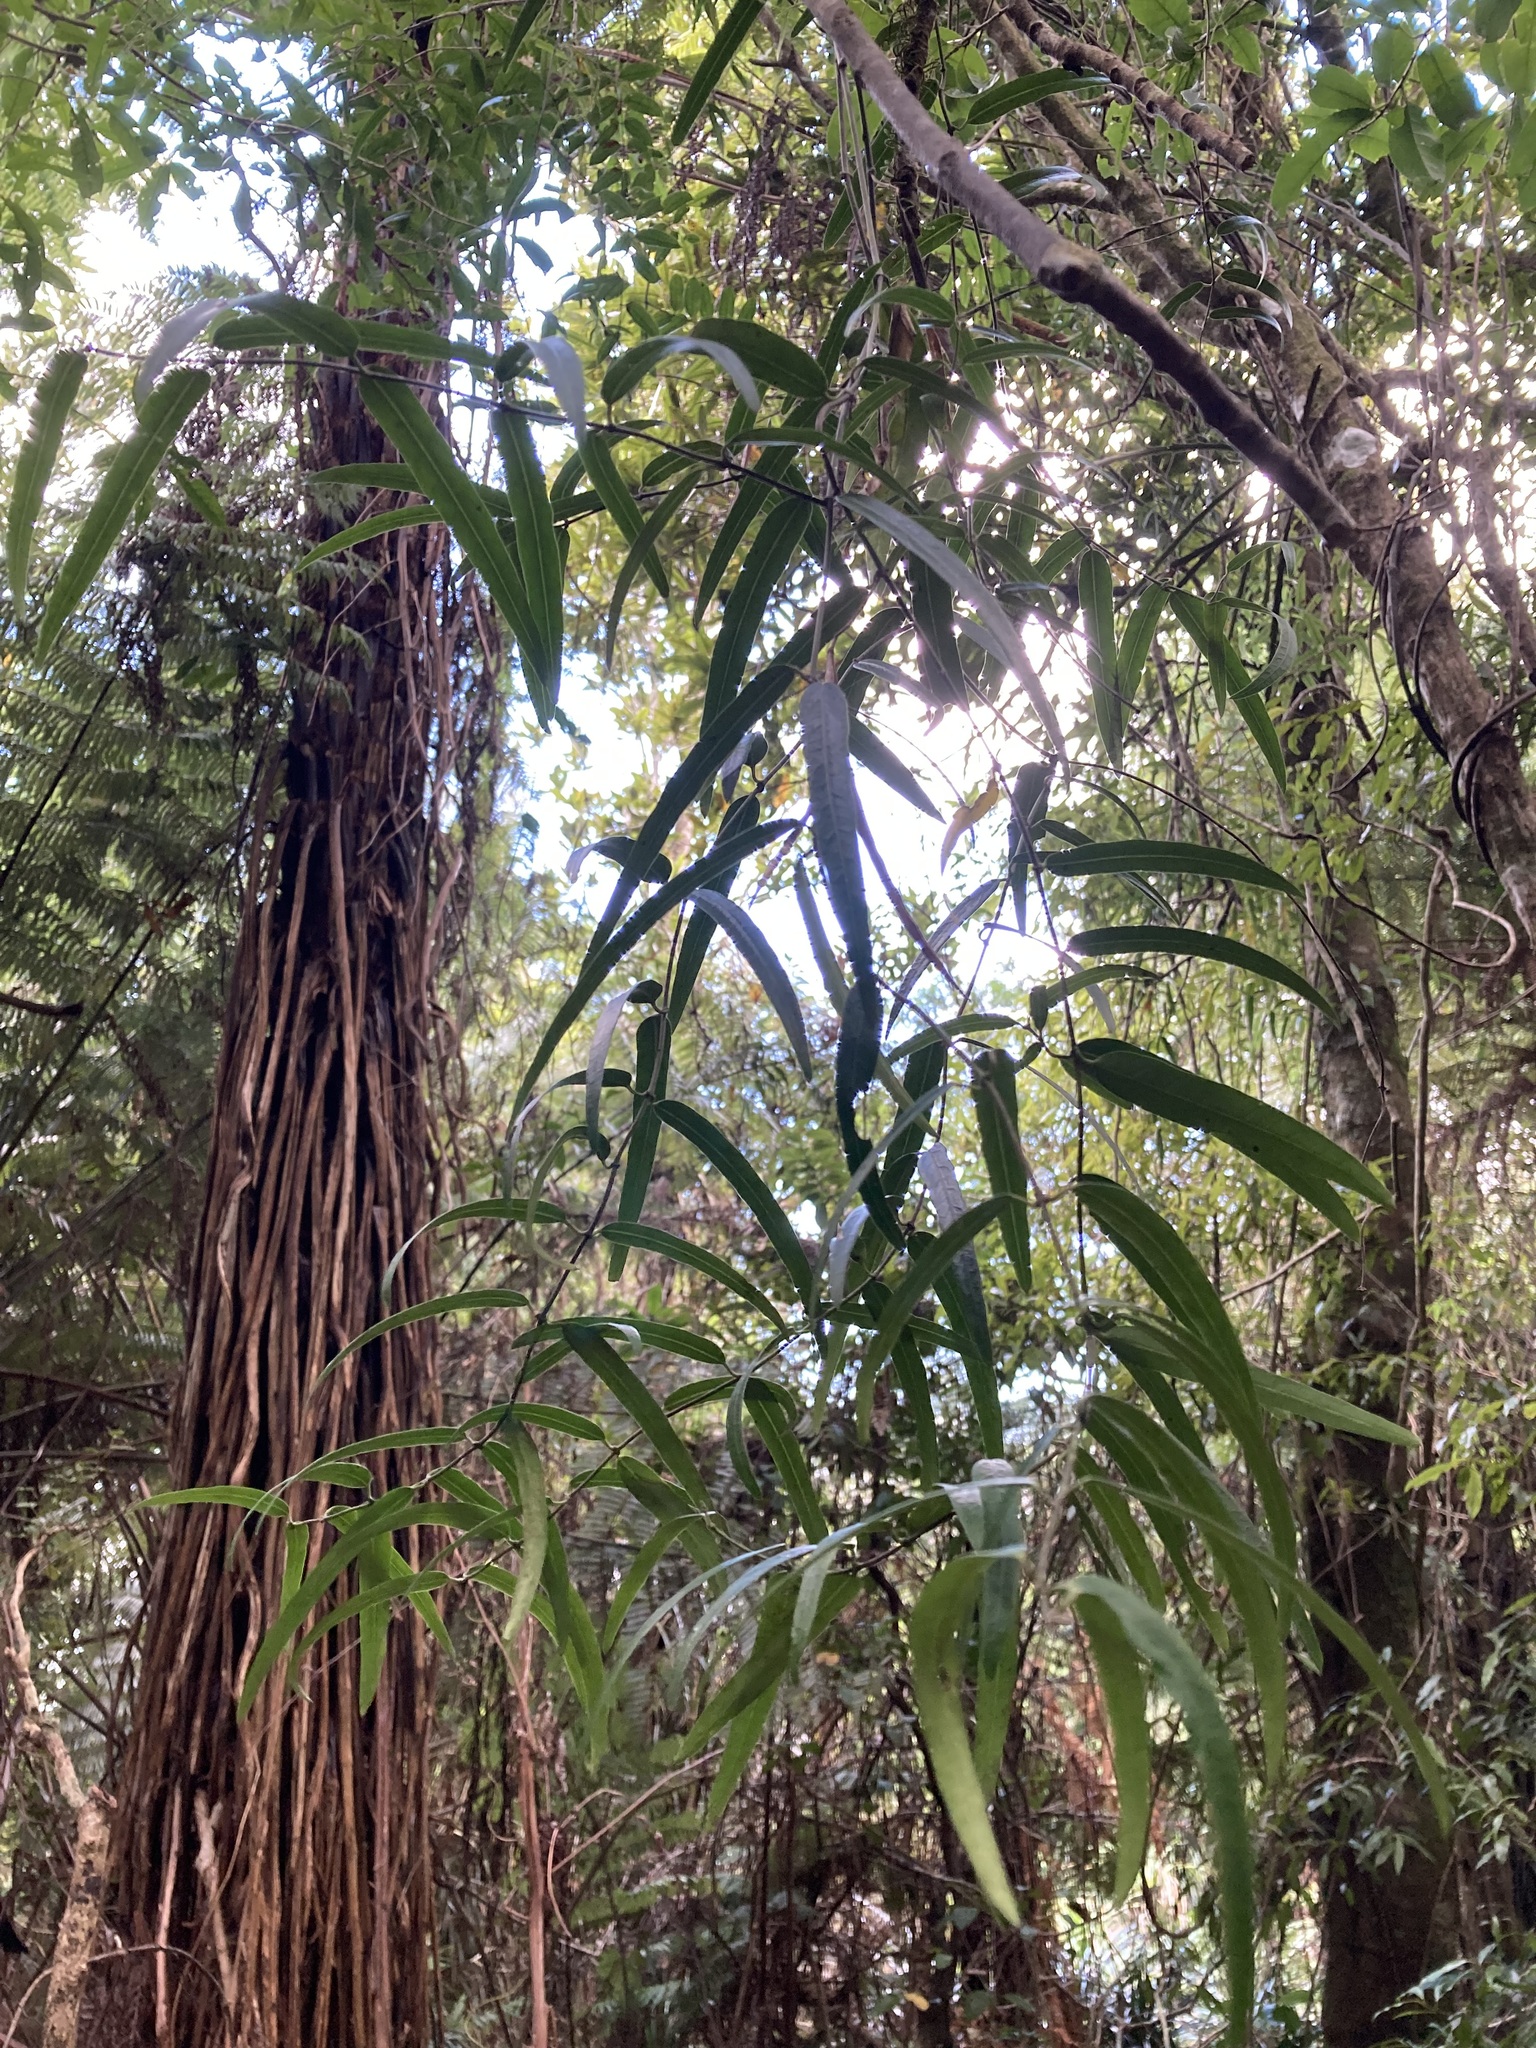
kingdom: Plantae
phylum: Tracheophyta
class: Magnoliopsida
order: Gentianales
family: Apocynaceae
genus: Parsonsia
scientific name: Parsonsia capsularis
